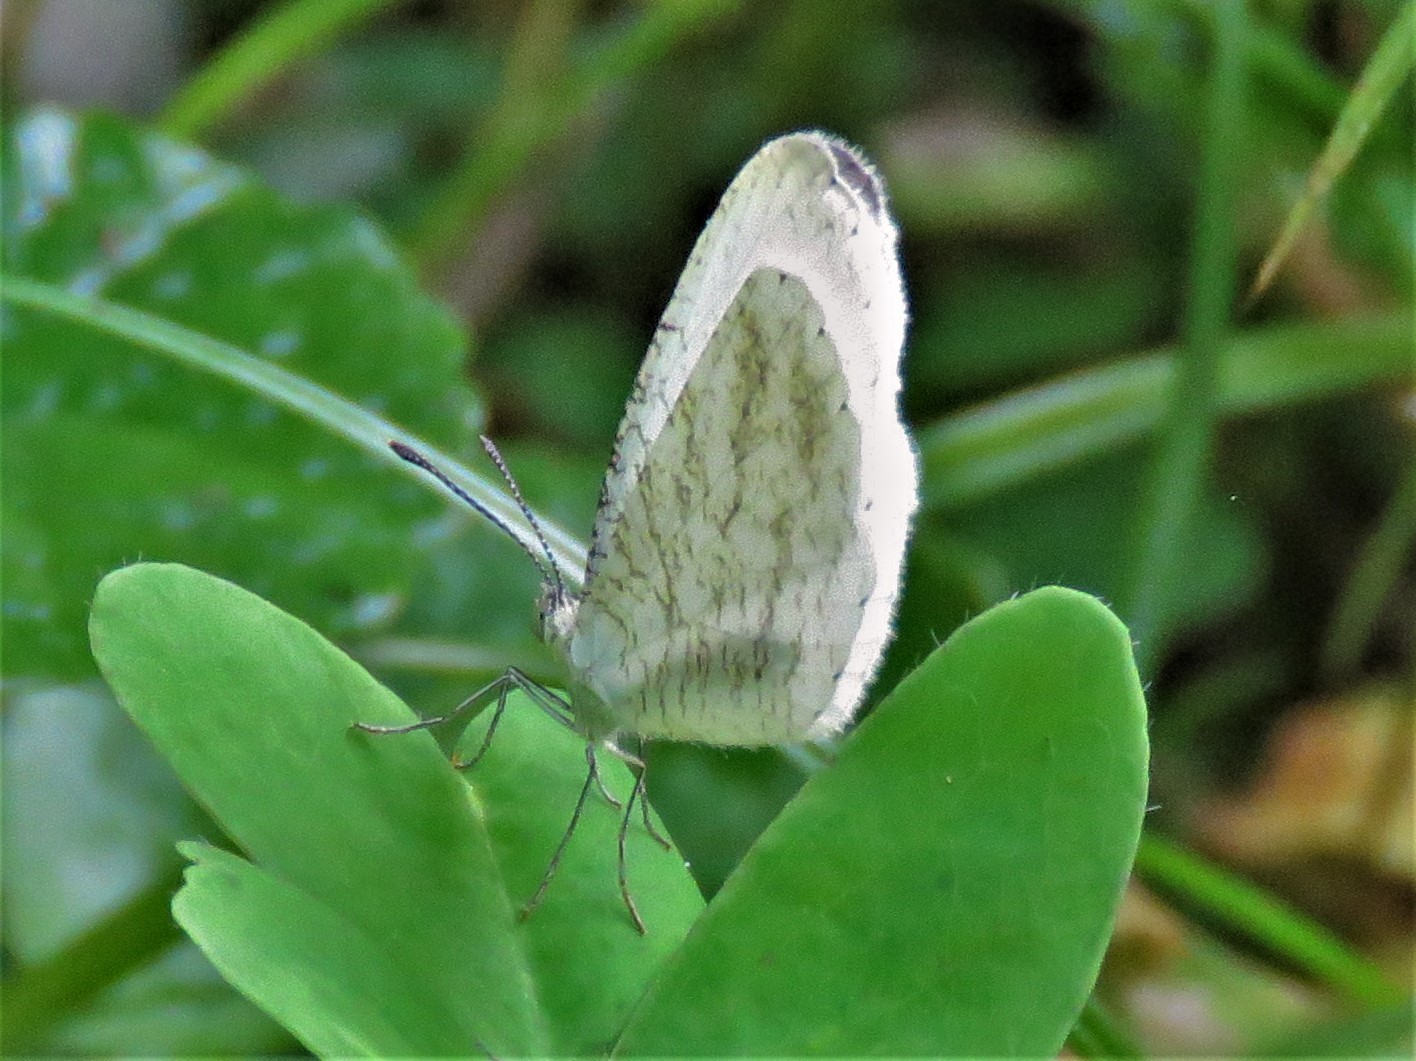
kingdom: Animalia
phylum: Arthropoda
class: Insecta
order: Lepidoptera
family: Pieridae
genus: Leptosia
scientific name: Leptosia nupta
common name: Immaculate wood white
